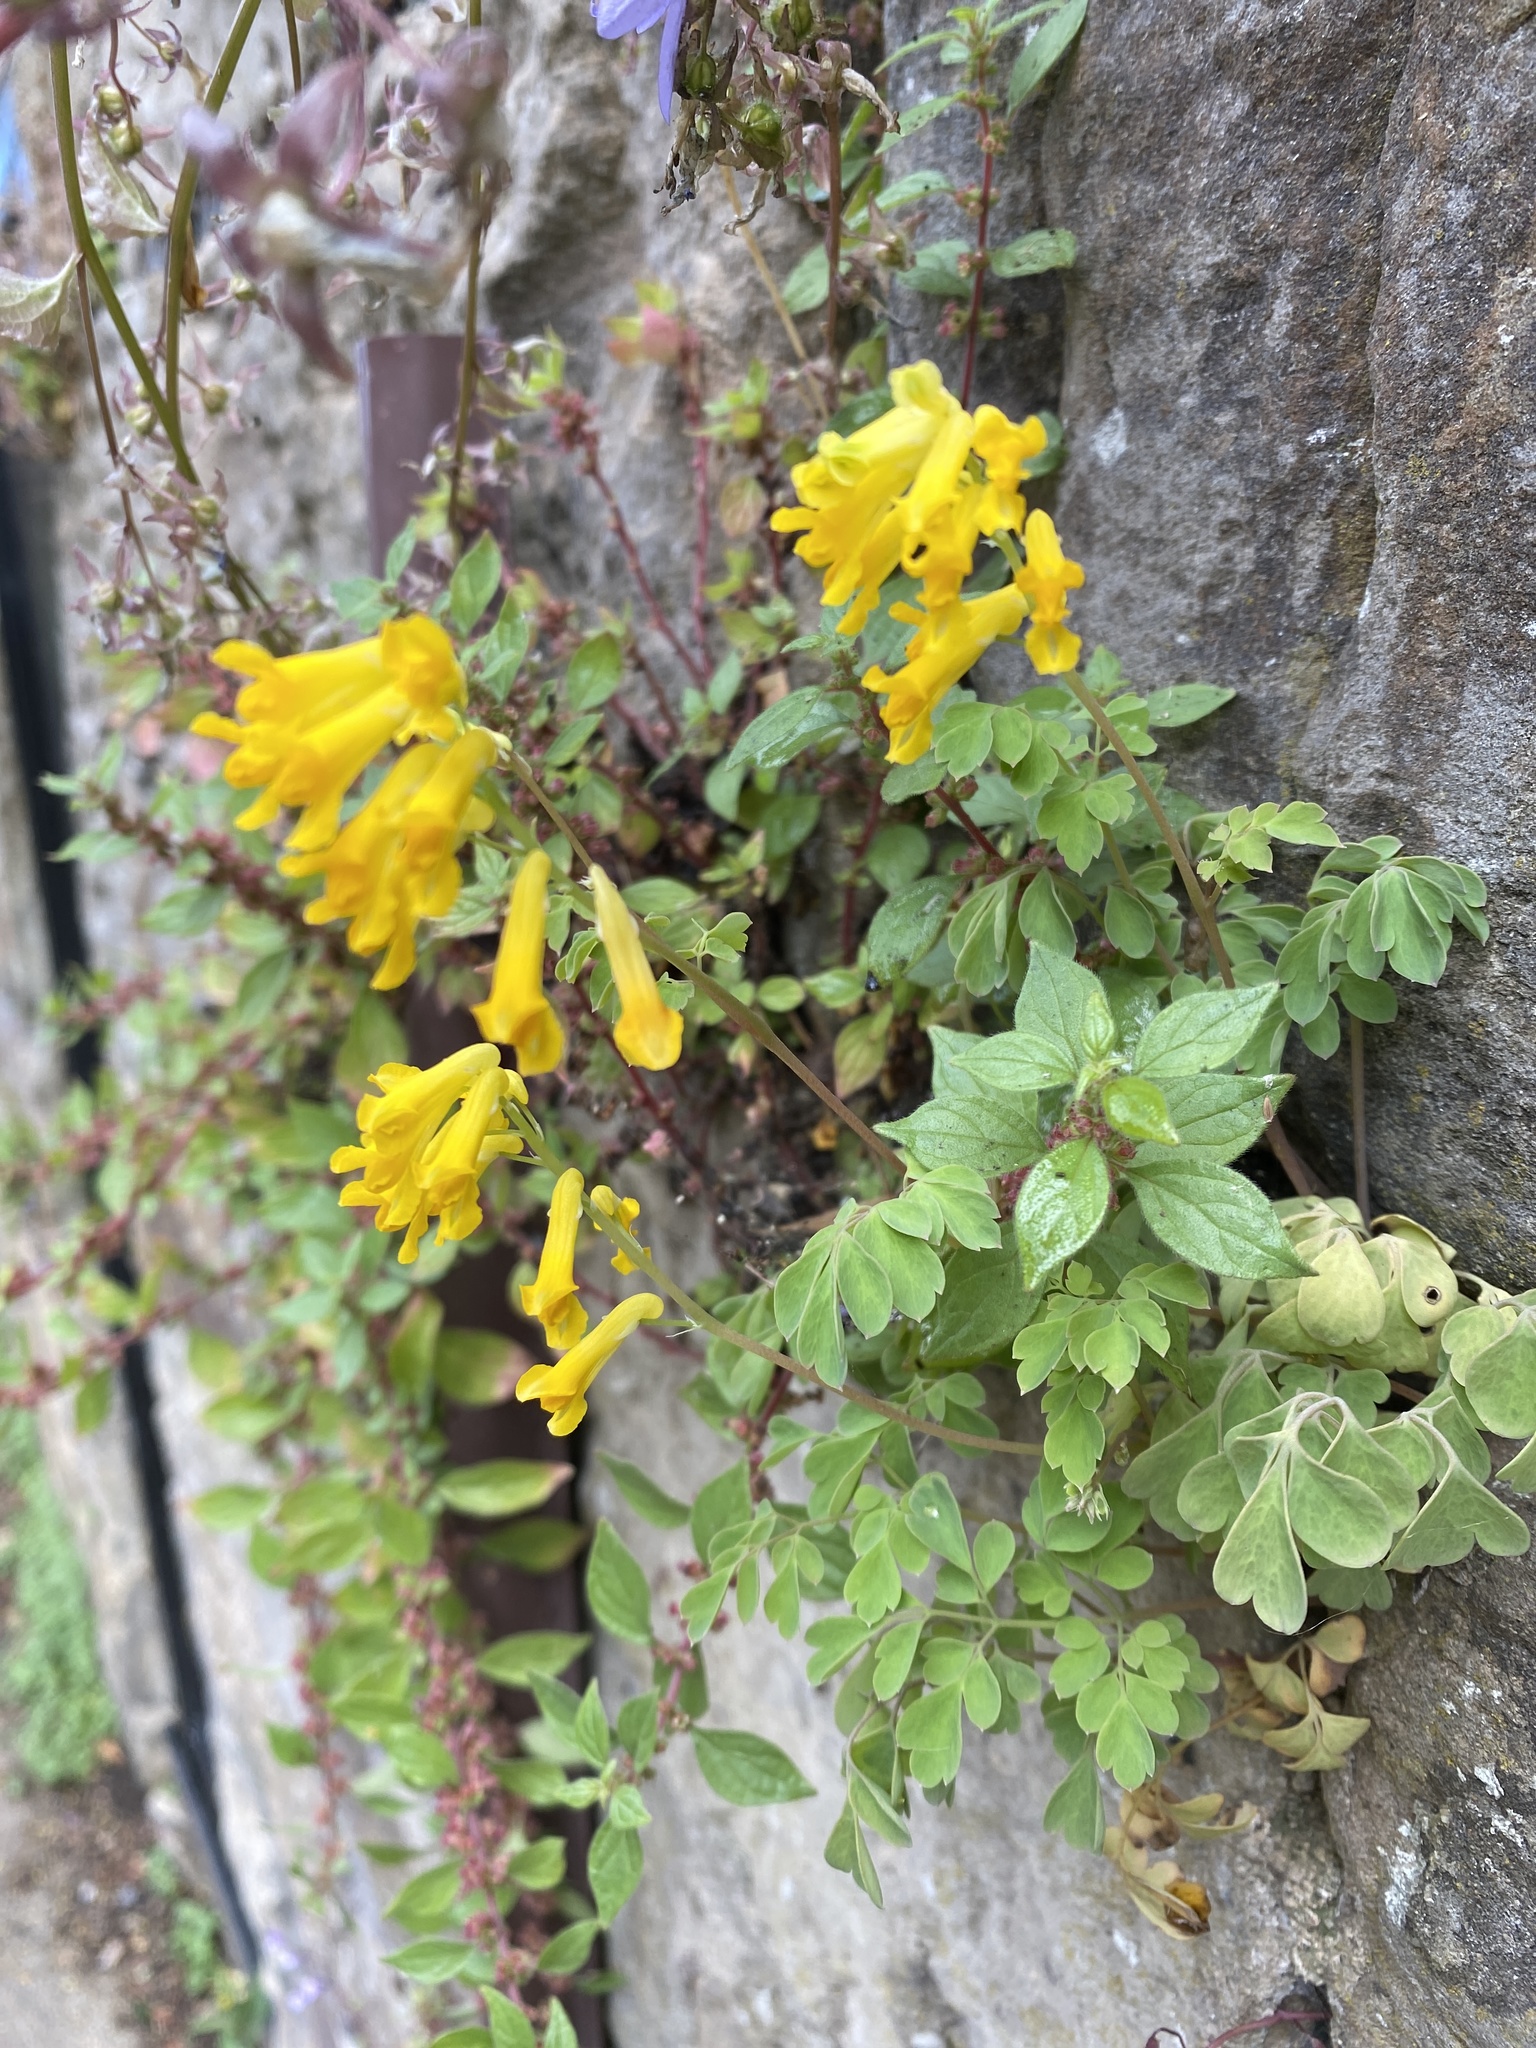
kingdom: Plantae
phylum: Tracheophyta
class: Magnoliopsida
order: Ranunculales
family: Papaveraceae
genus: Pseudofumaria
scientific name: Pseudofumaria lutea
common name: Yellow corydalis
